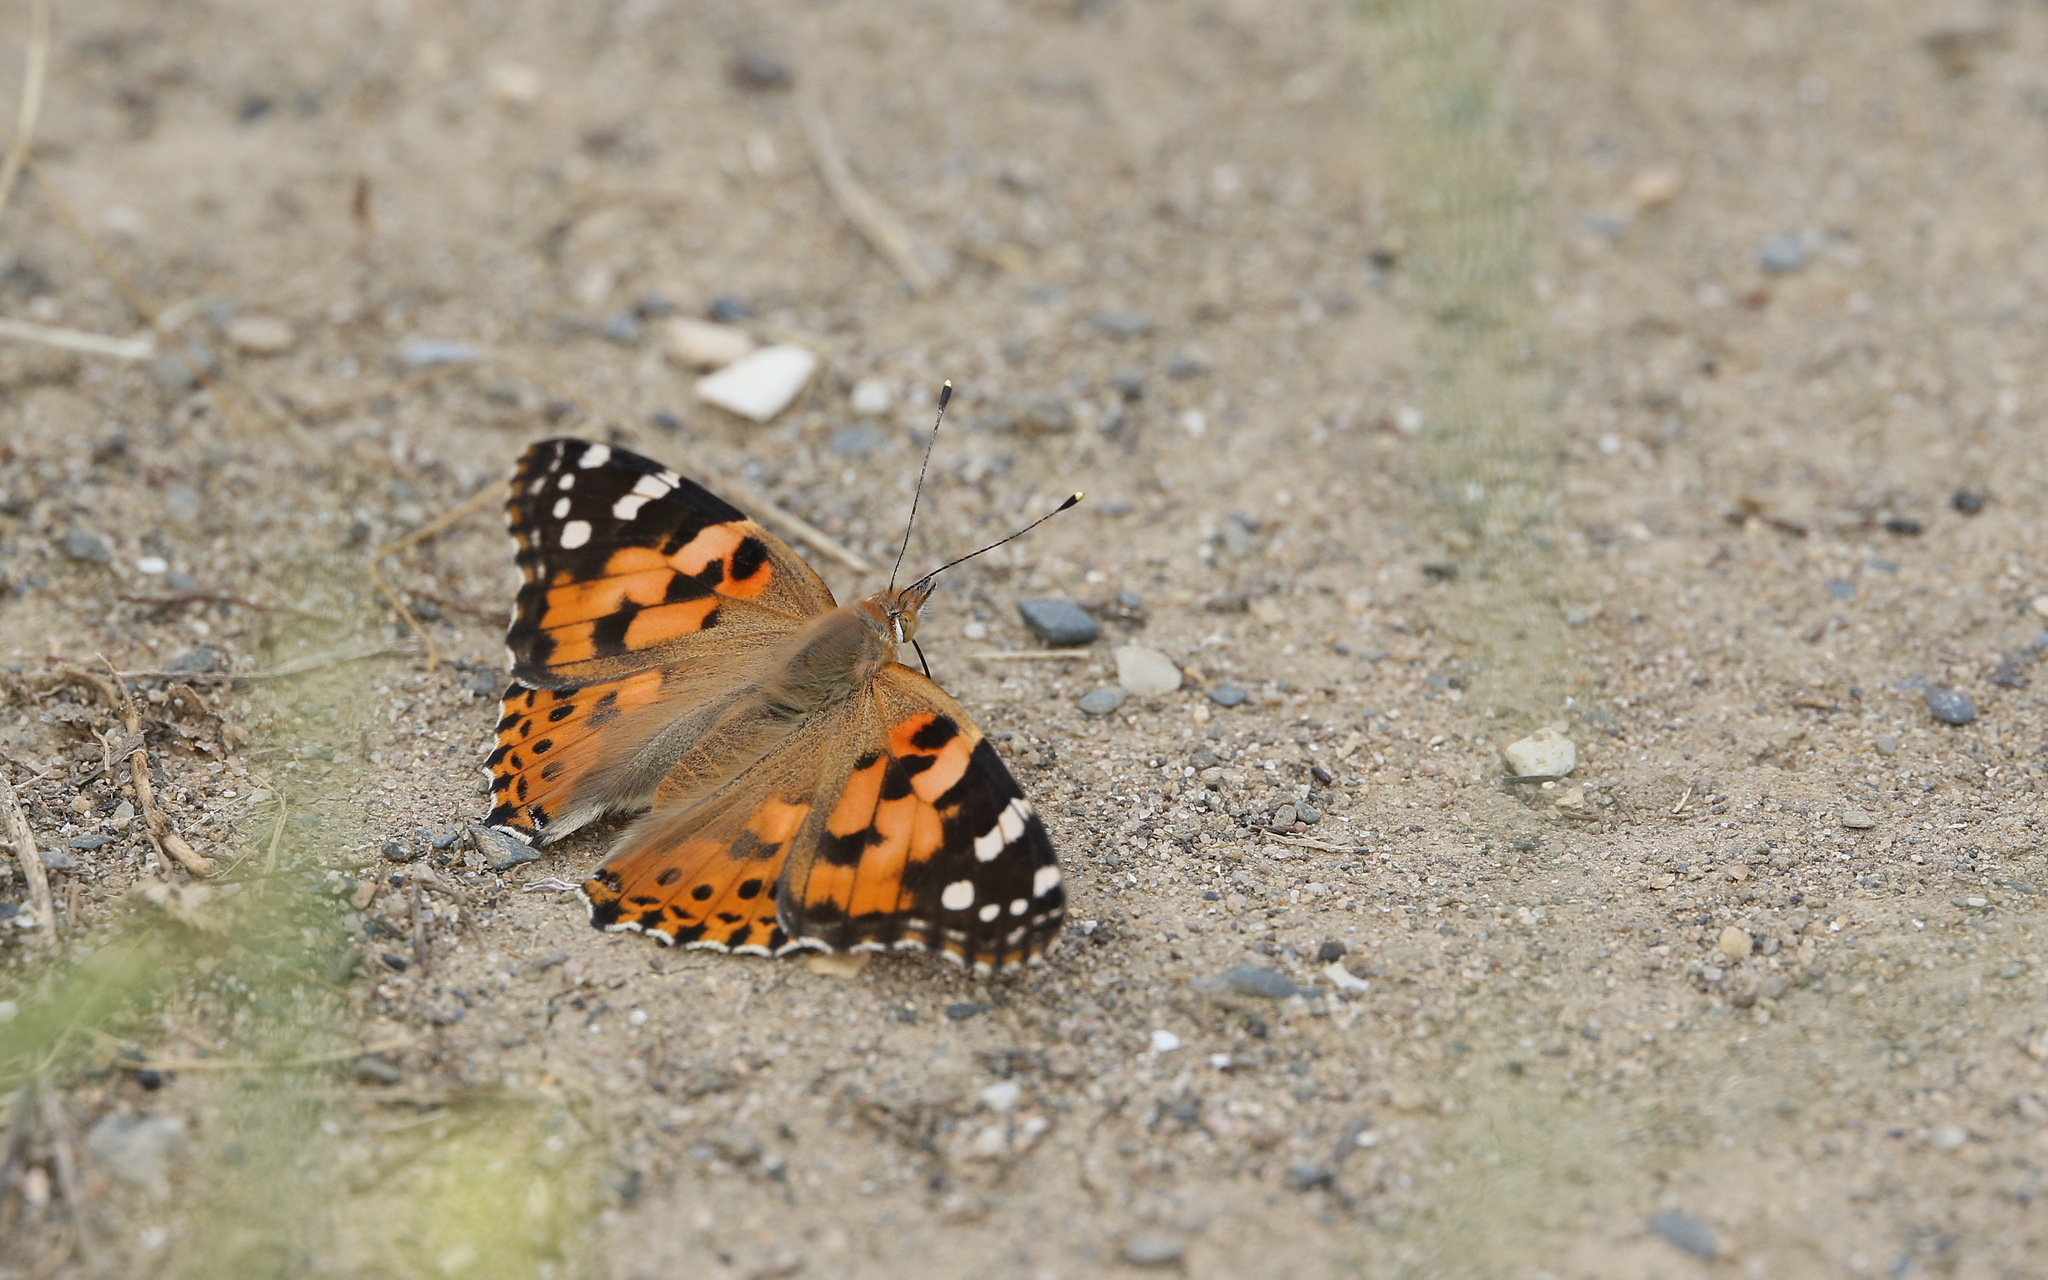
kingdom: Animalia
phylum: Arthropoda
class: Insecta
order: Lepidoptera
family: Nymphalidae
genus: Vanessa
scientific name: Vanessa cardui
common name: Painted lady
